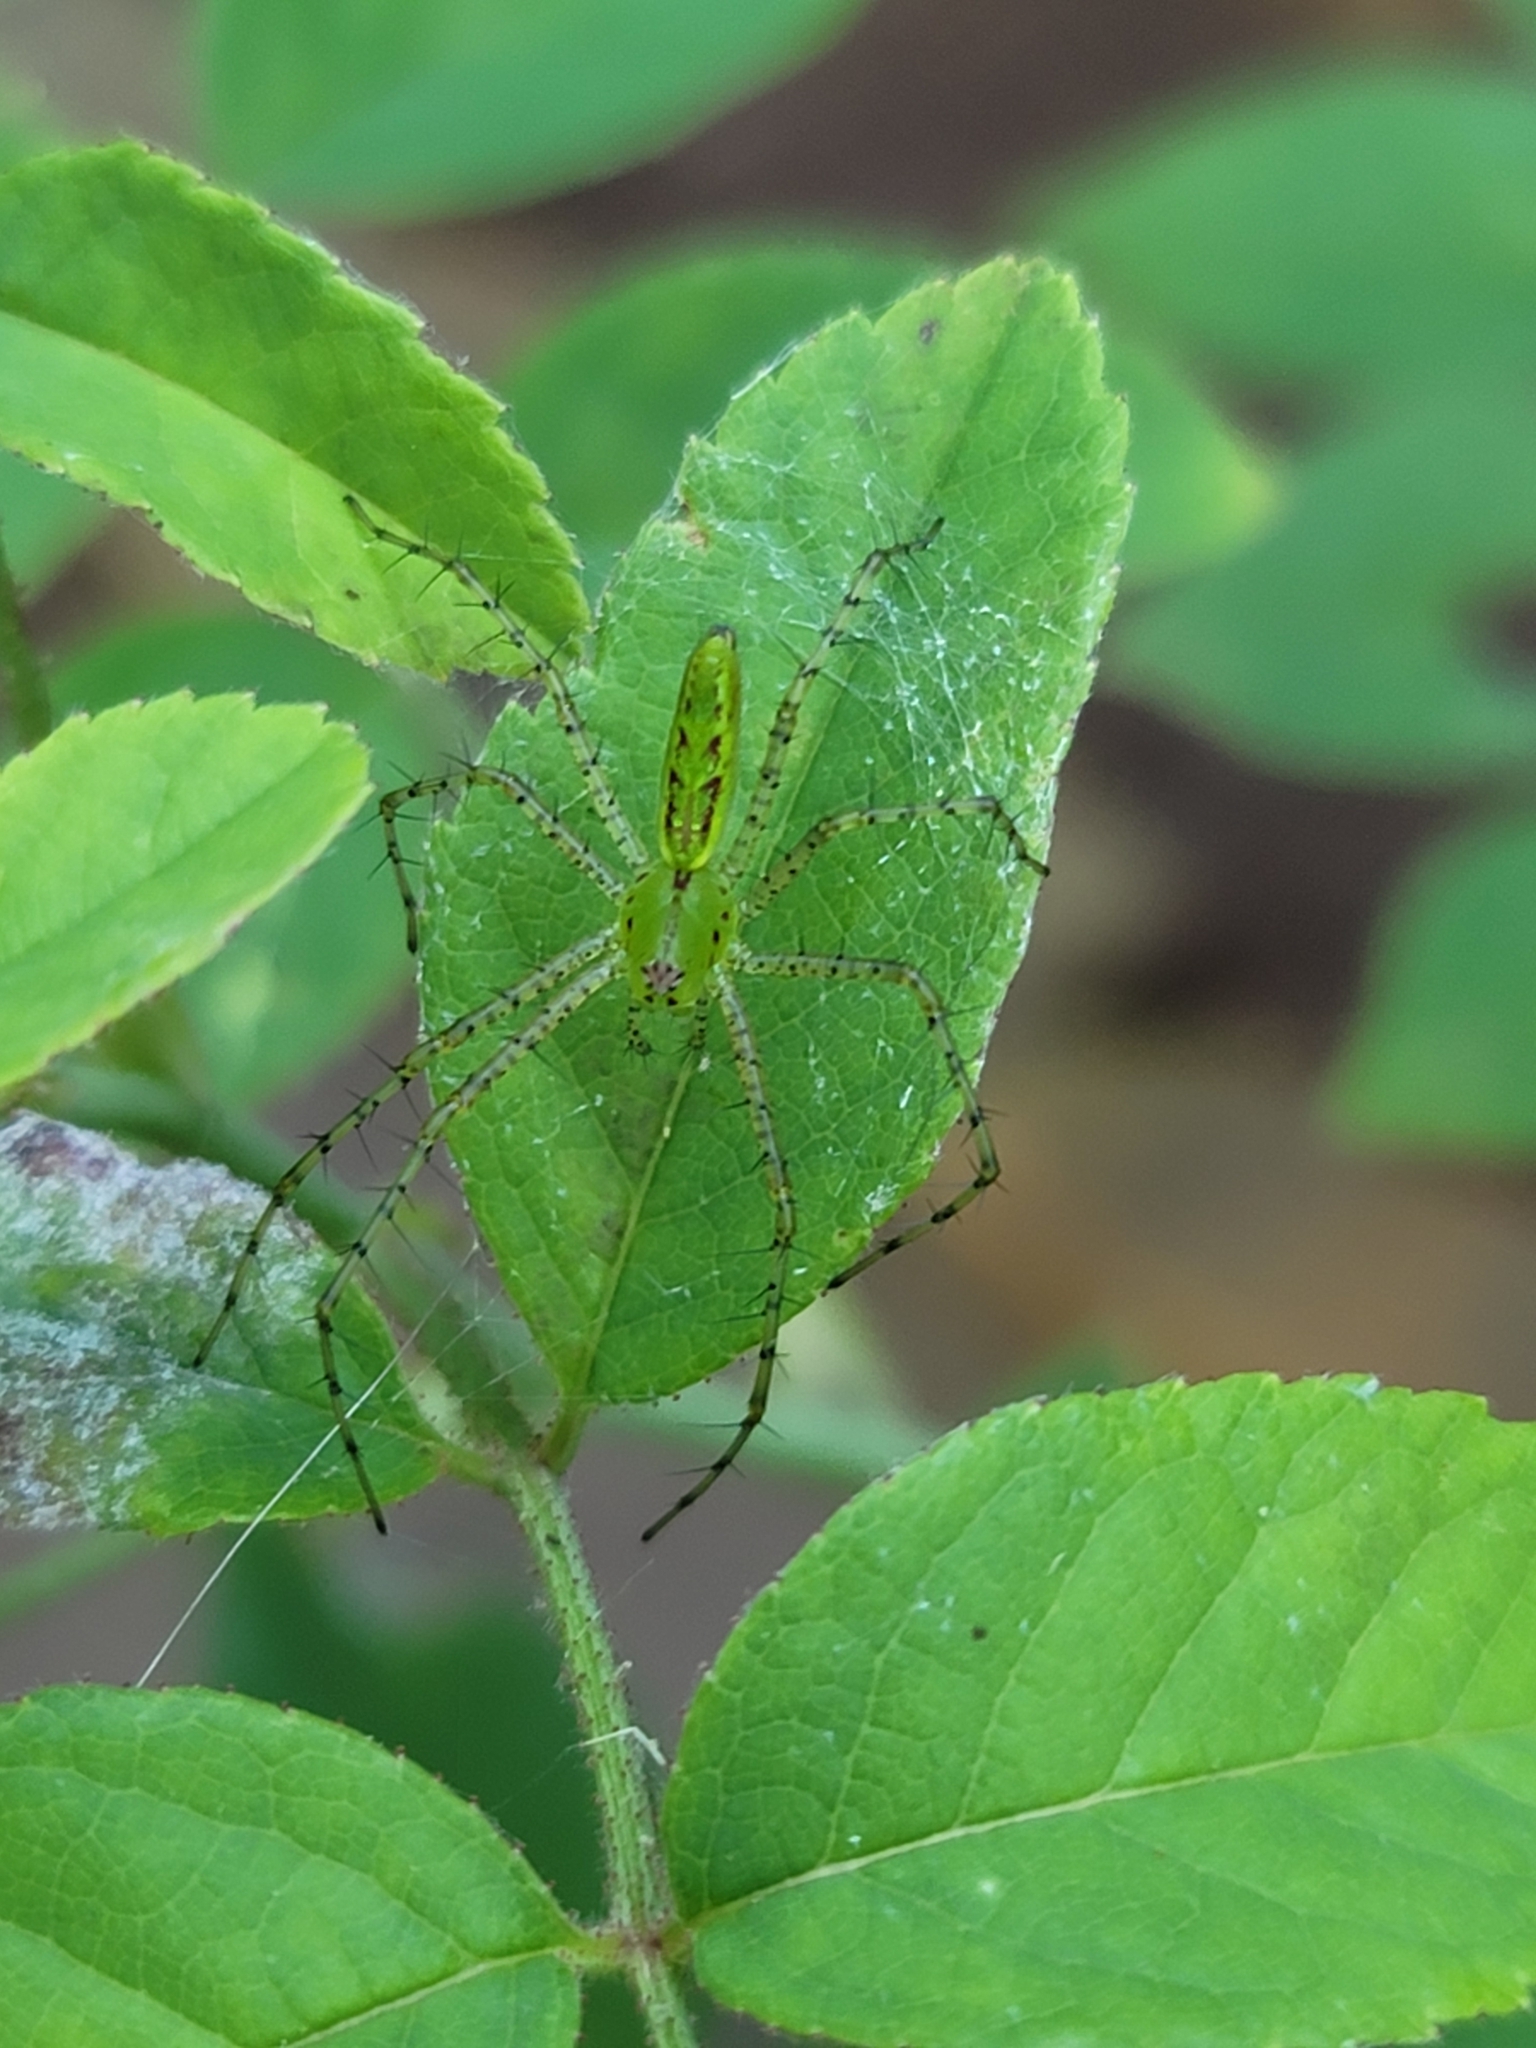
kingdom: Animalia
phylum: Arthropoda
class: Arachnida
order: Araneae
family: Oxyopidae
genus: Peucetia
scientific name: Peucetia viridans
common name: Lynx spiders
